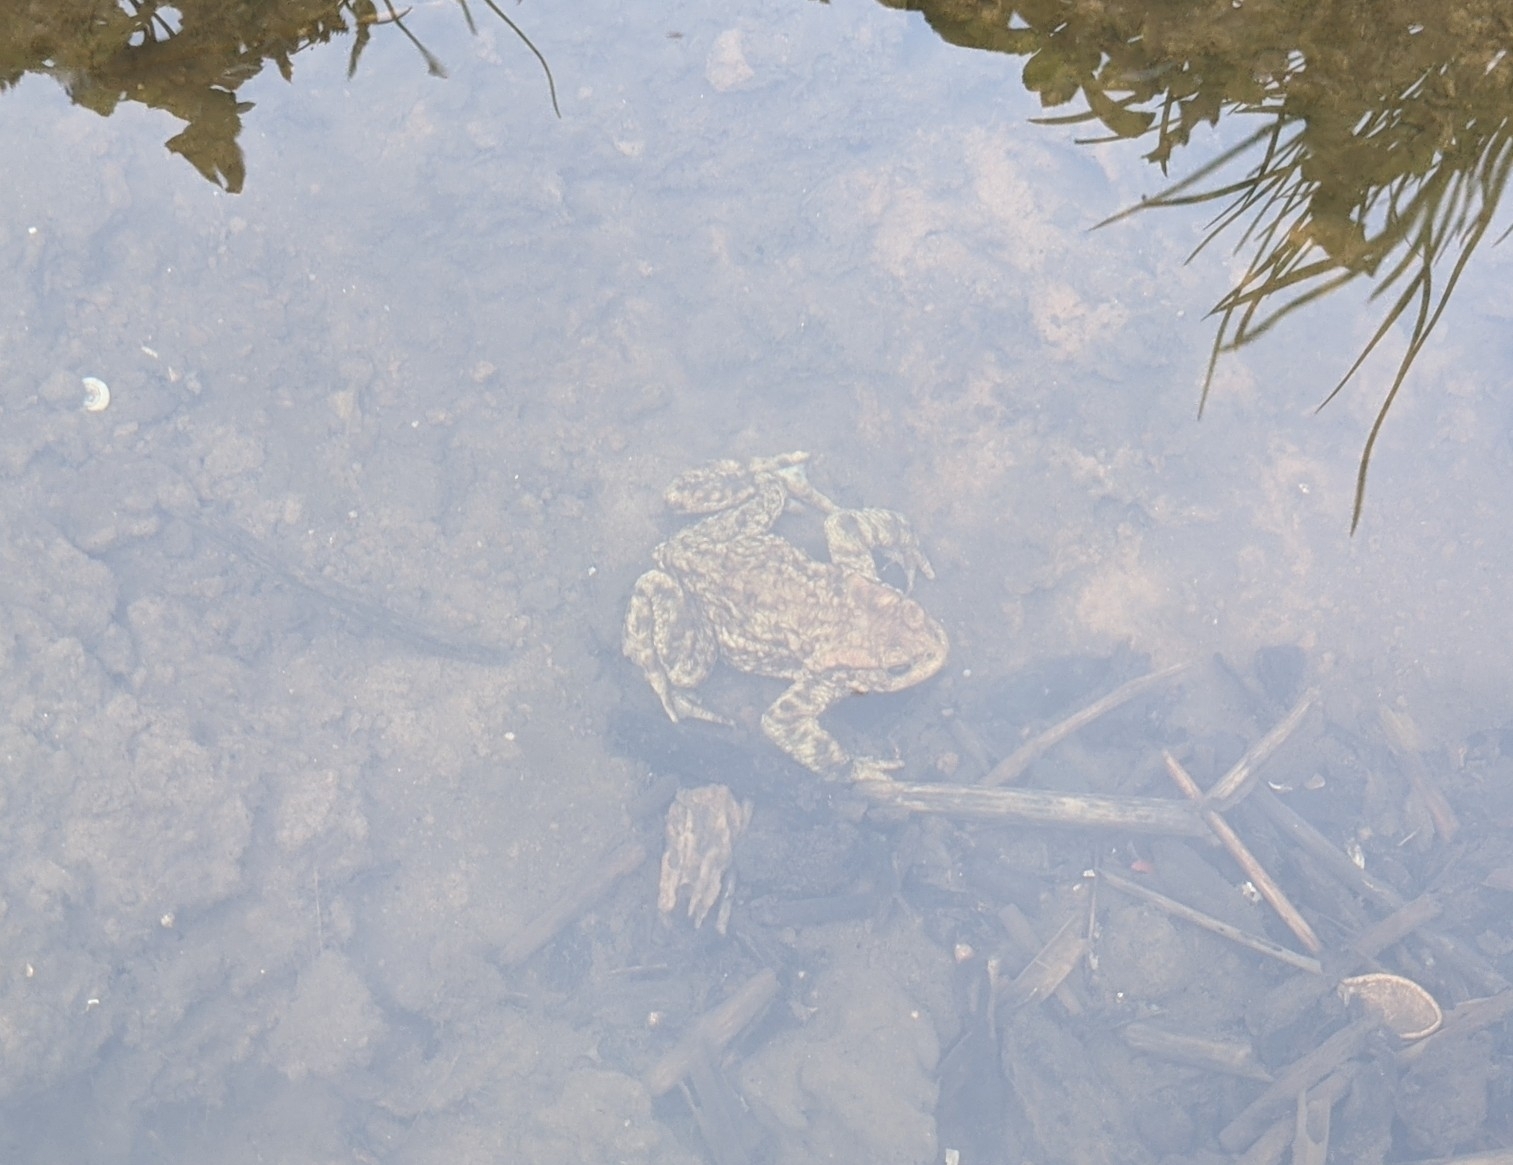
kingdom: Animalia
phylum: Chordata
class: Amphibia
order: Anura
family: Bufonidae
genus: Bufo
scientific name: Bufo bufo
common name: Common toad
